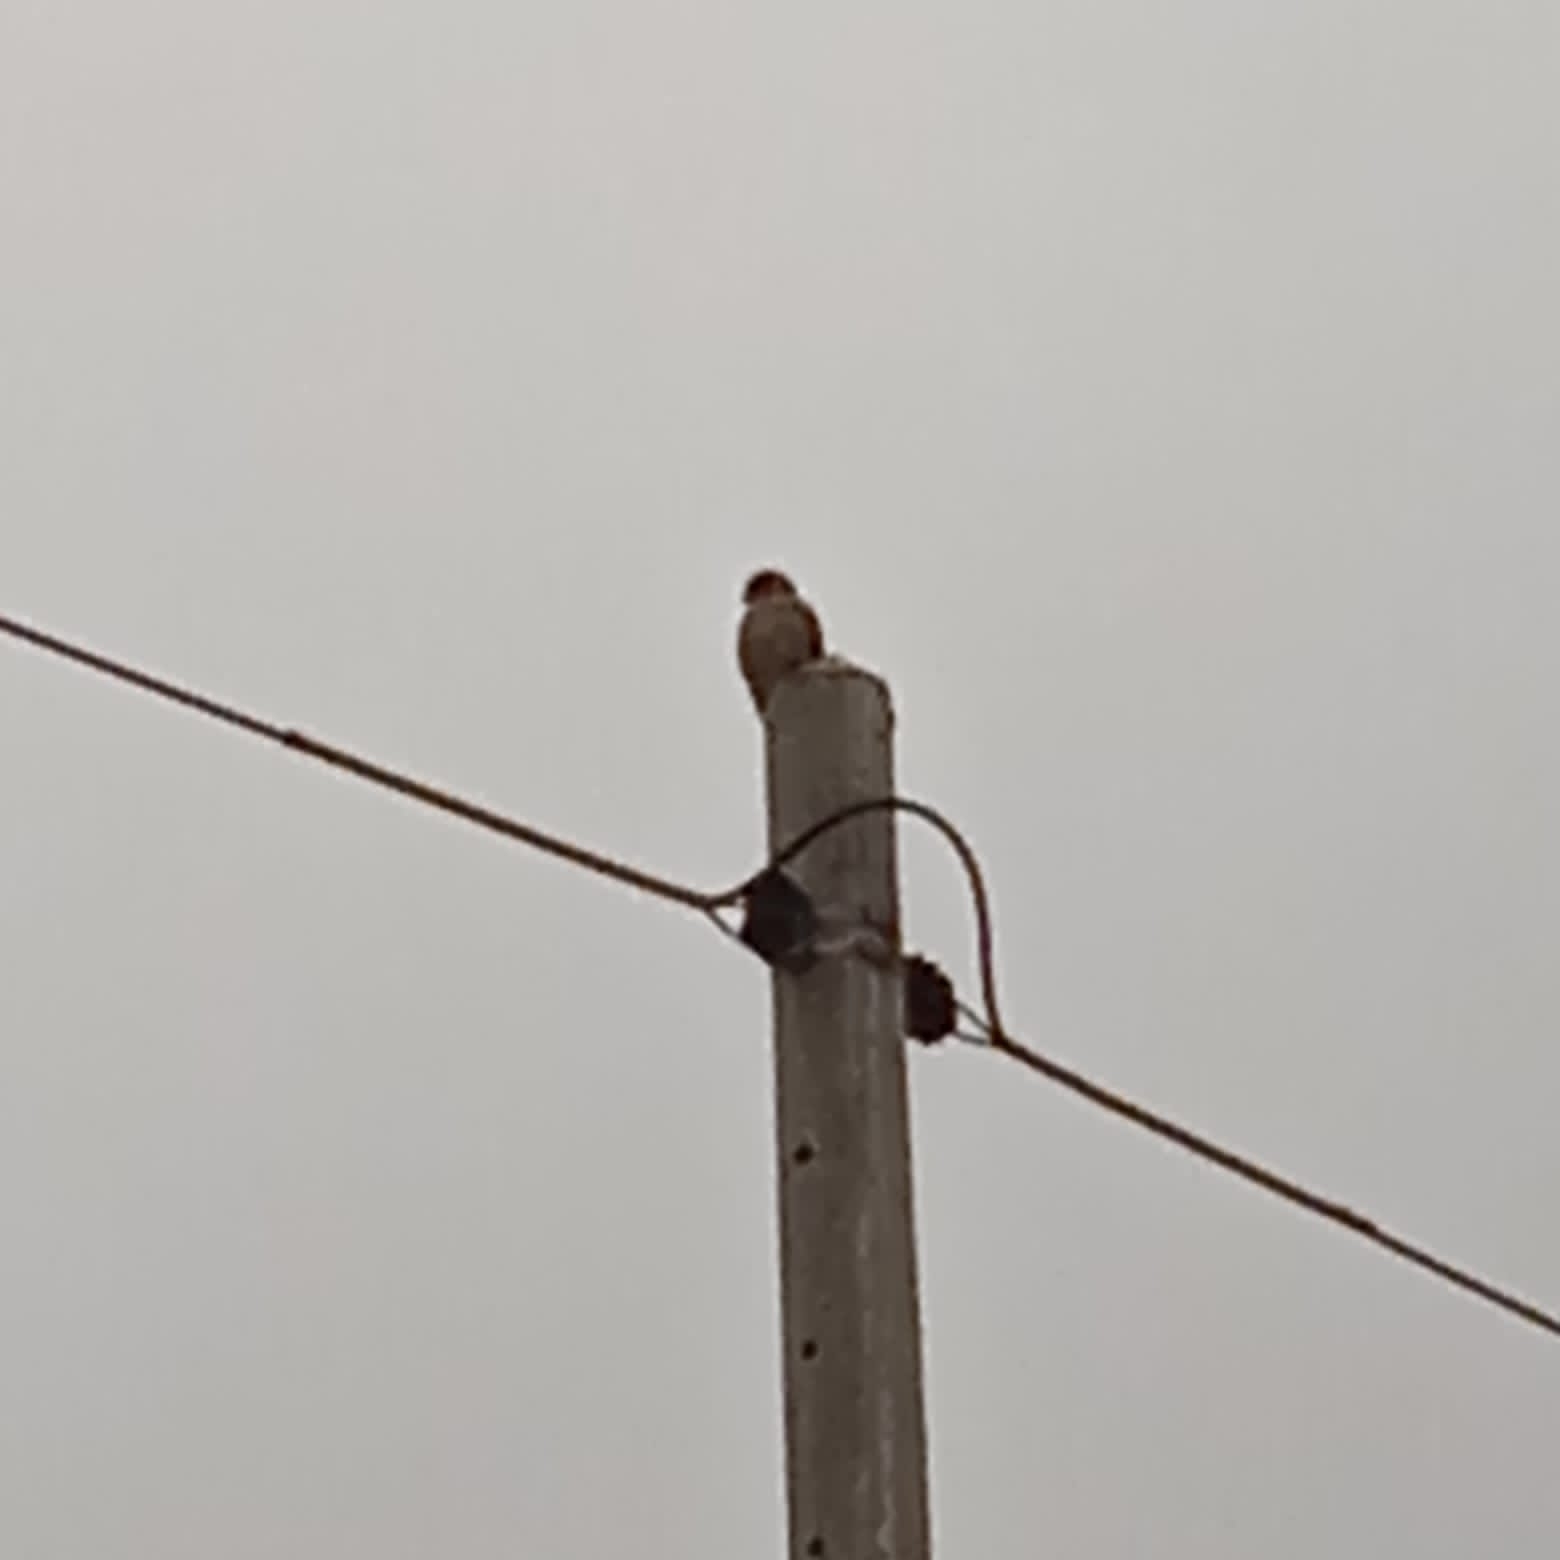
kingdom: Animalia
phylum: Chordata
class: Aves
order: Falconiformes
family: Falconidae
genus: Falco
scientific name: Falco sparverius
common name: American kestrel
